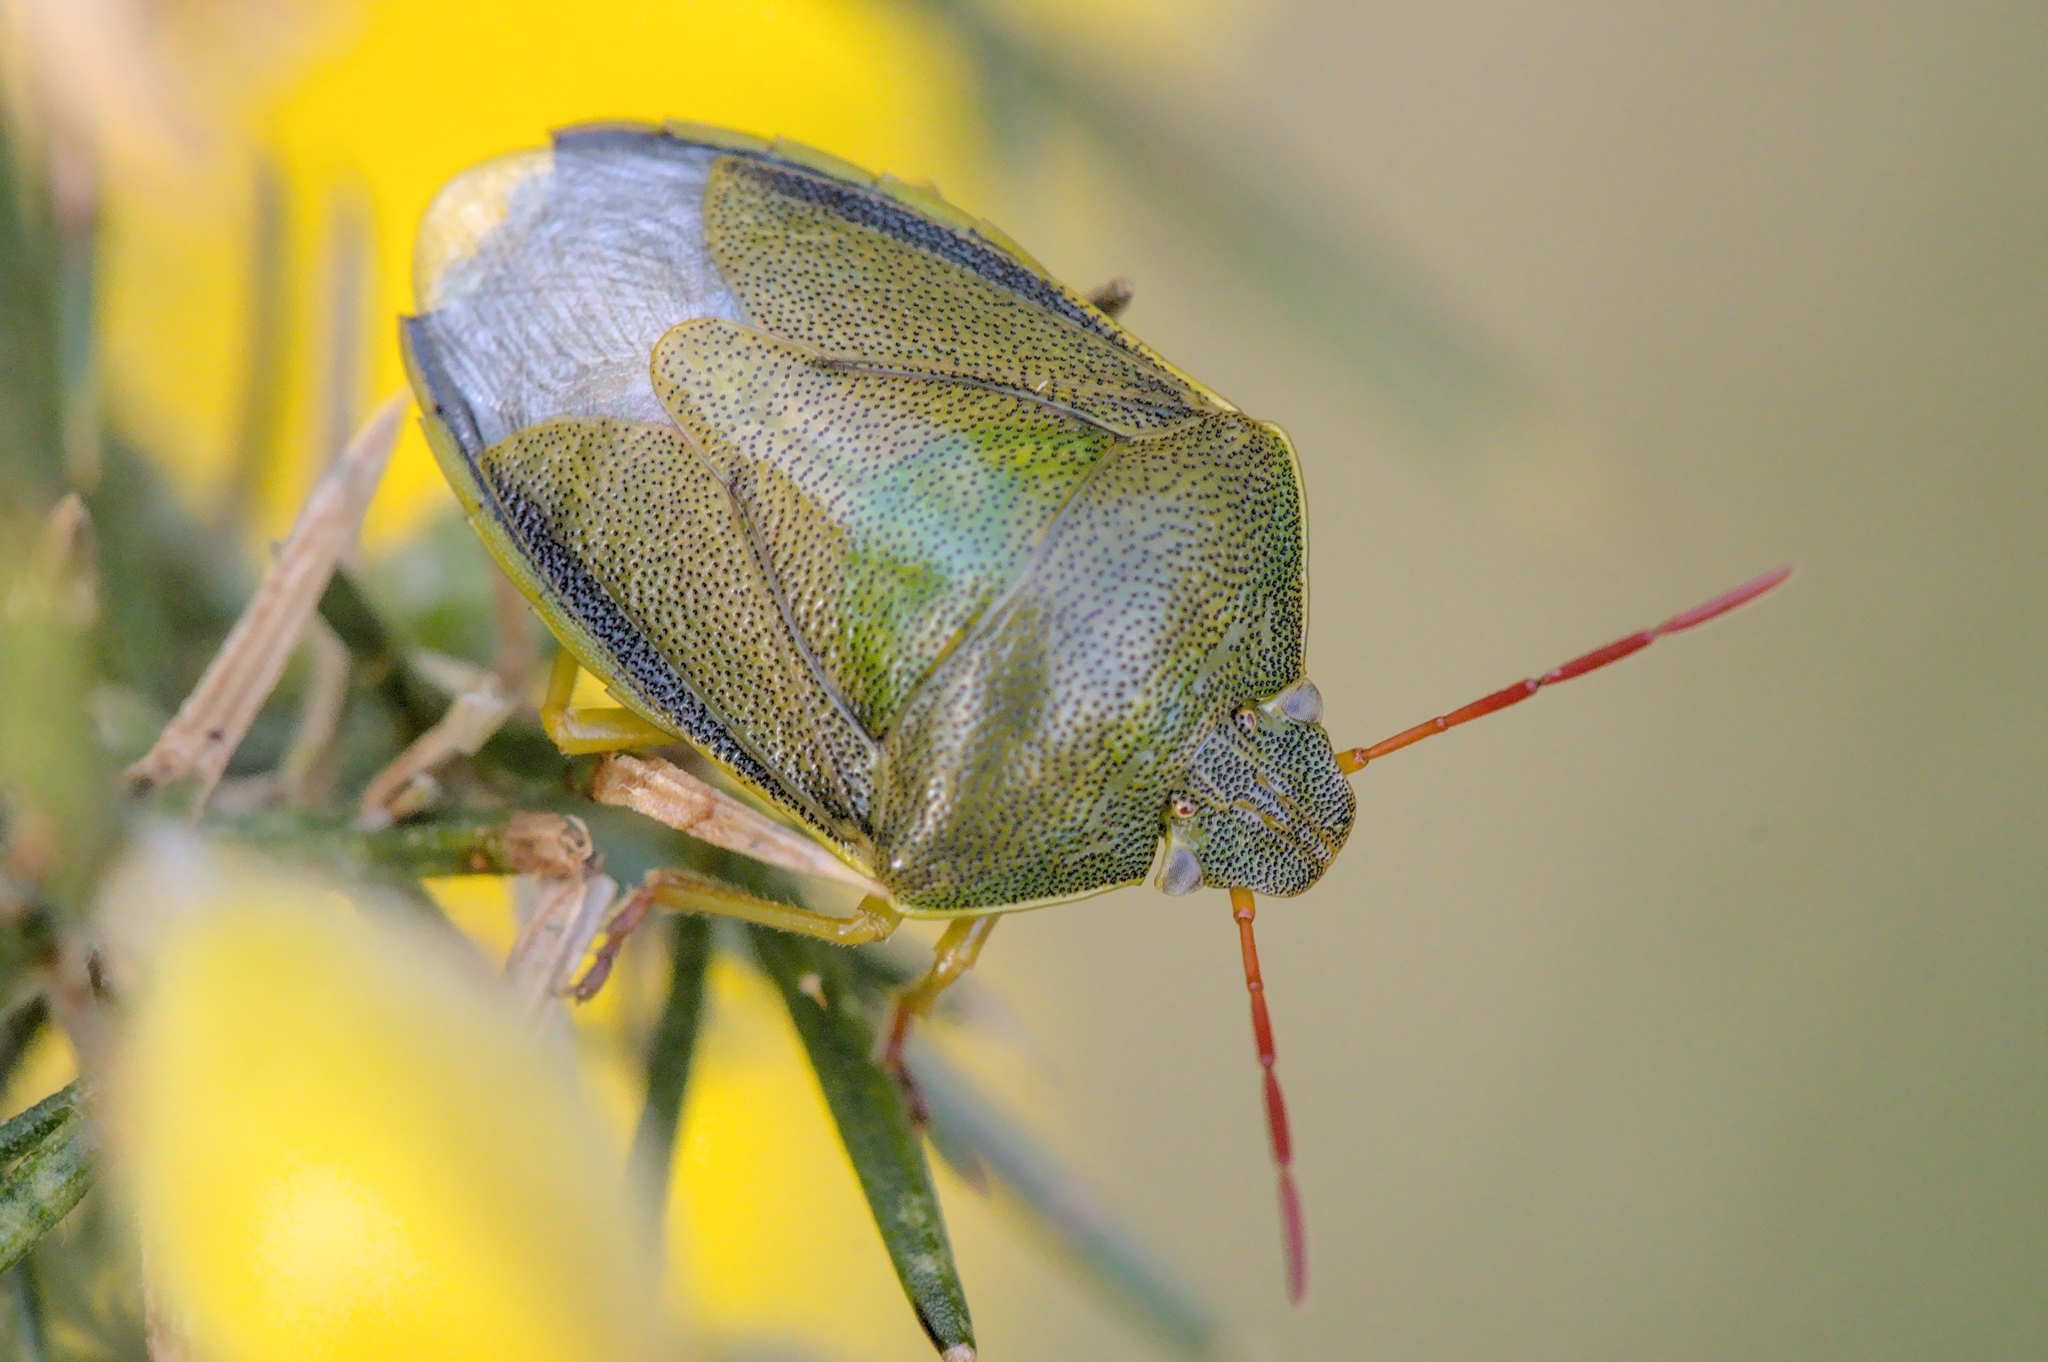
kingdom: Animalia
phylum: Arthropoda
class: Insecta
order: Hemiptera
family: Pentatomidae
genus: Piezodorus
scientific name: Piezodorus lituratus
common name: Stink bug
